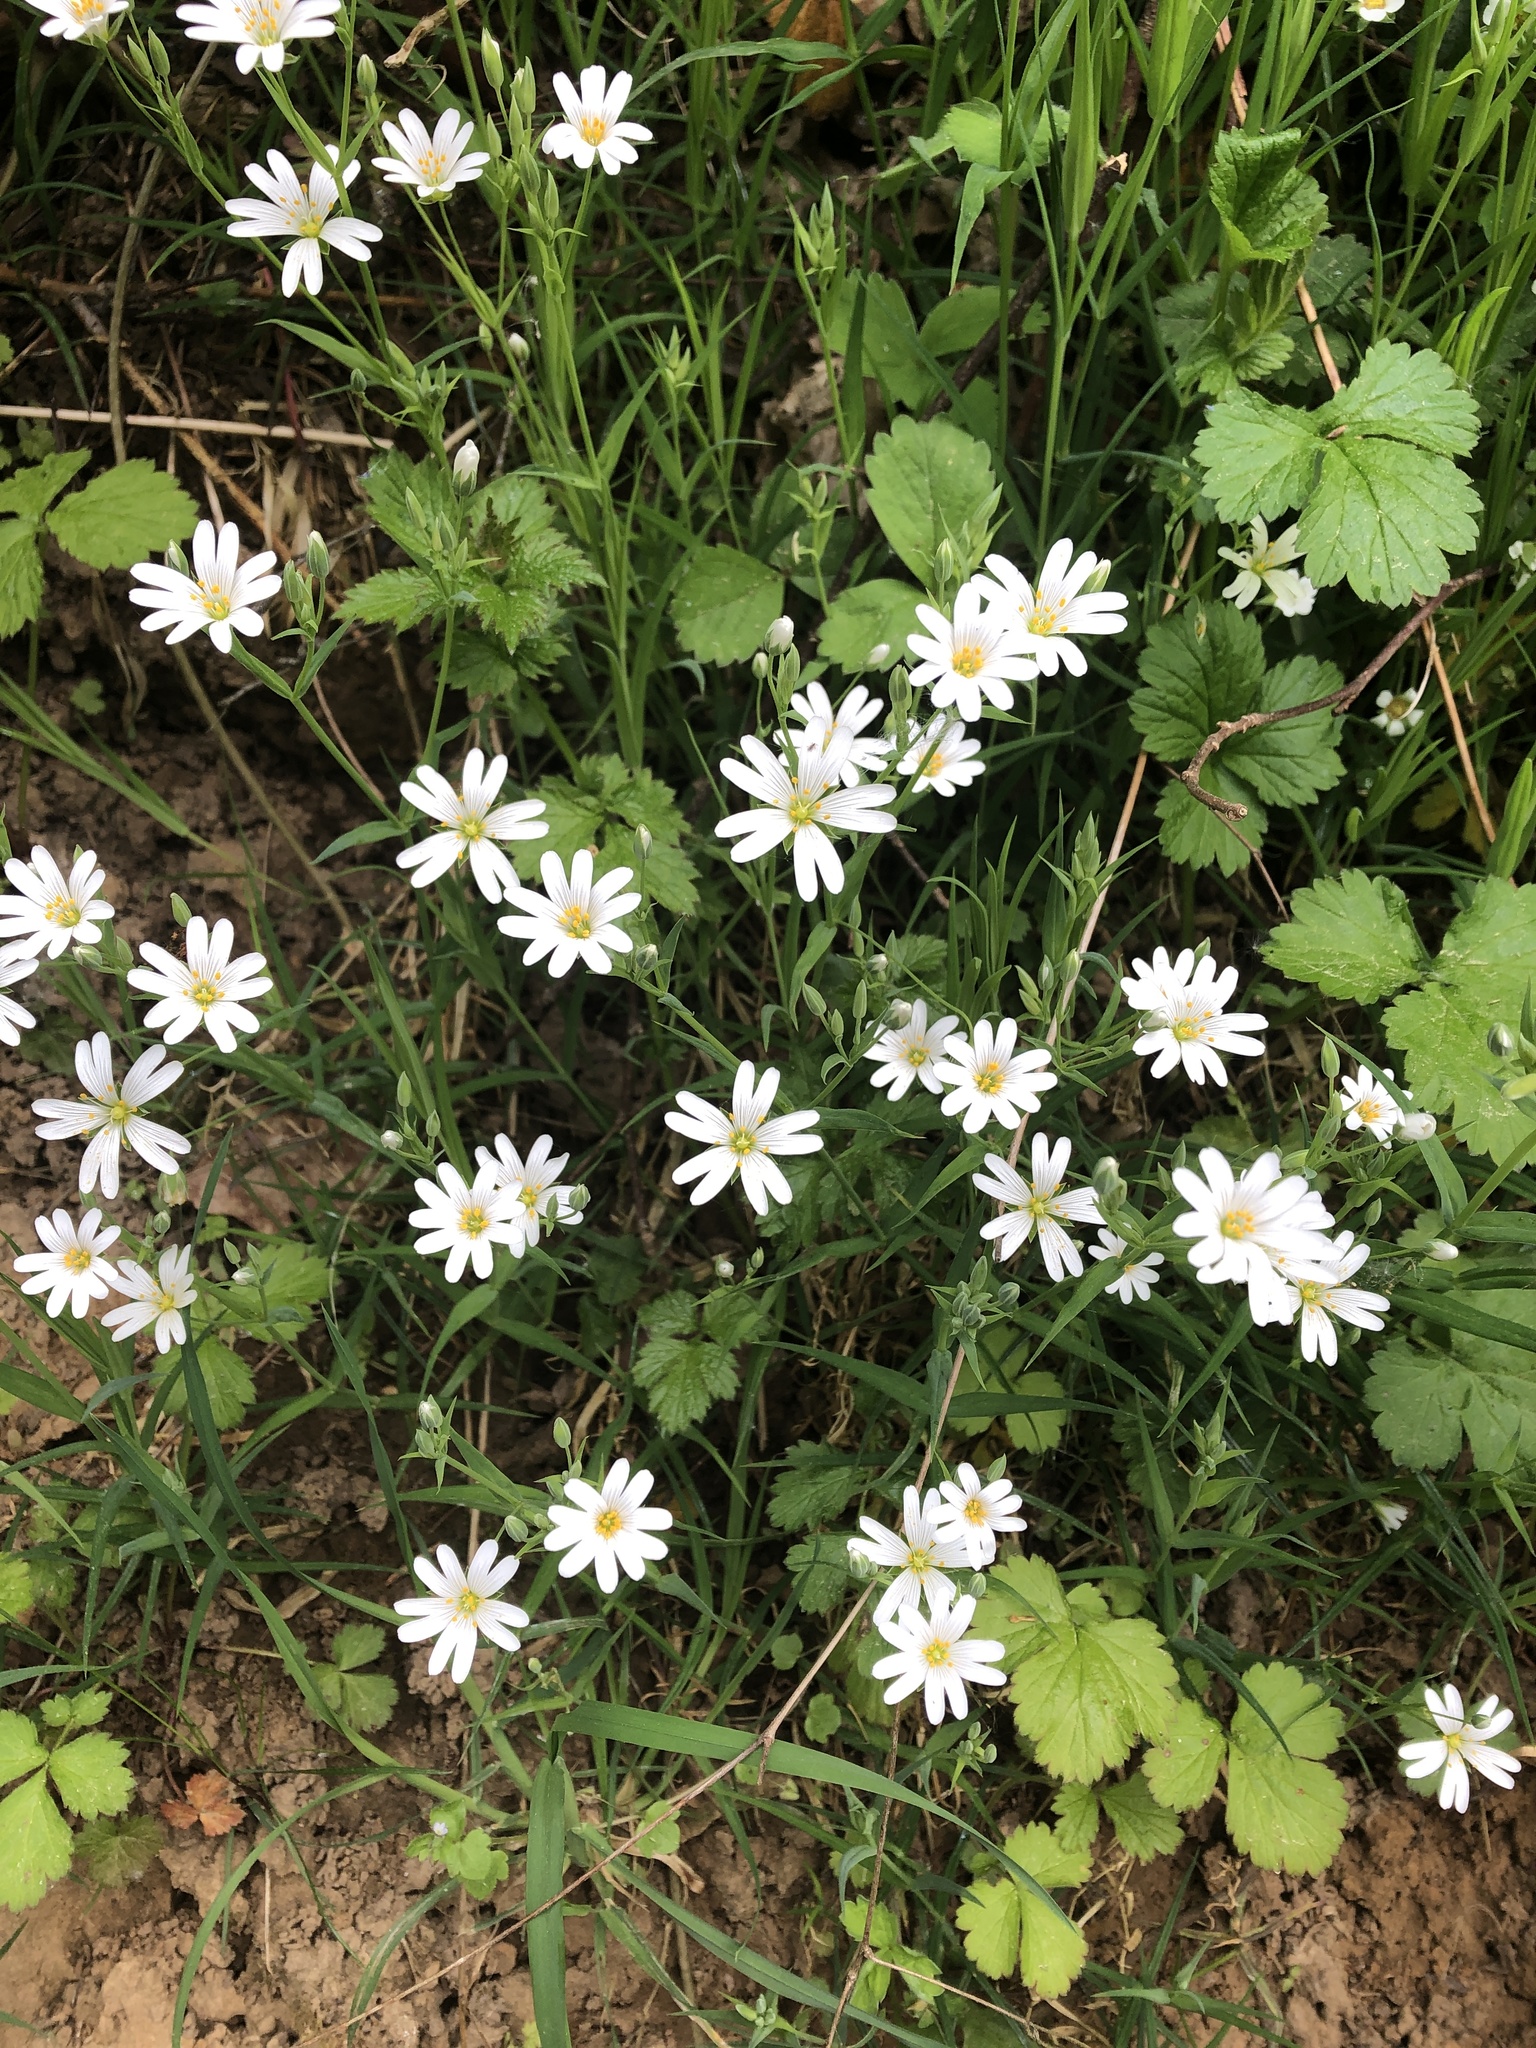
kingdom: Plantae
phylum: Tracheophyta
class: Magnoliopsida
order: Caryophyllales
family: Caryophyllaceae
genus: Rabelera
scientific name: Rabelera holostea
